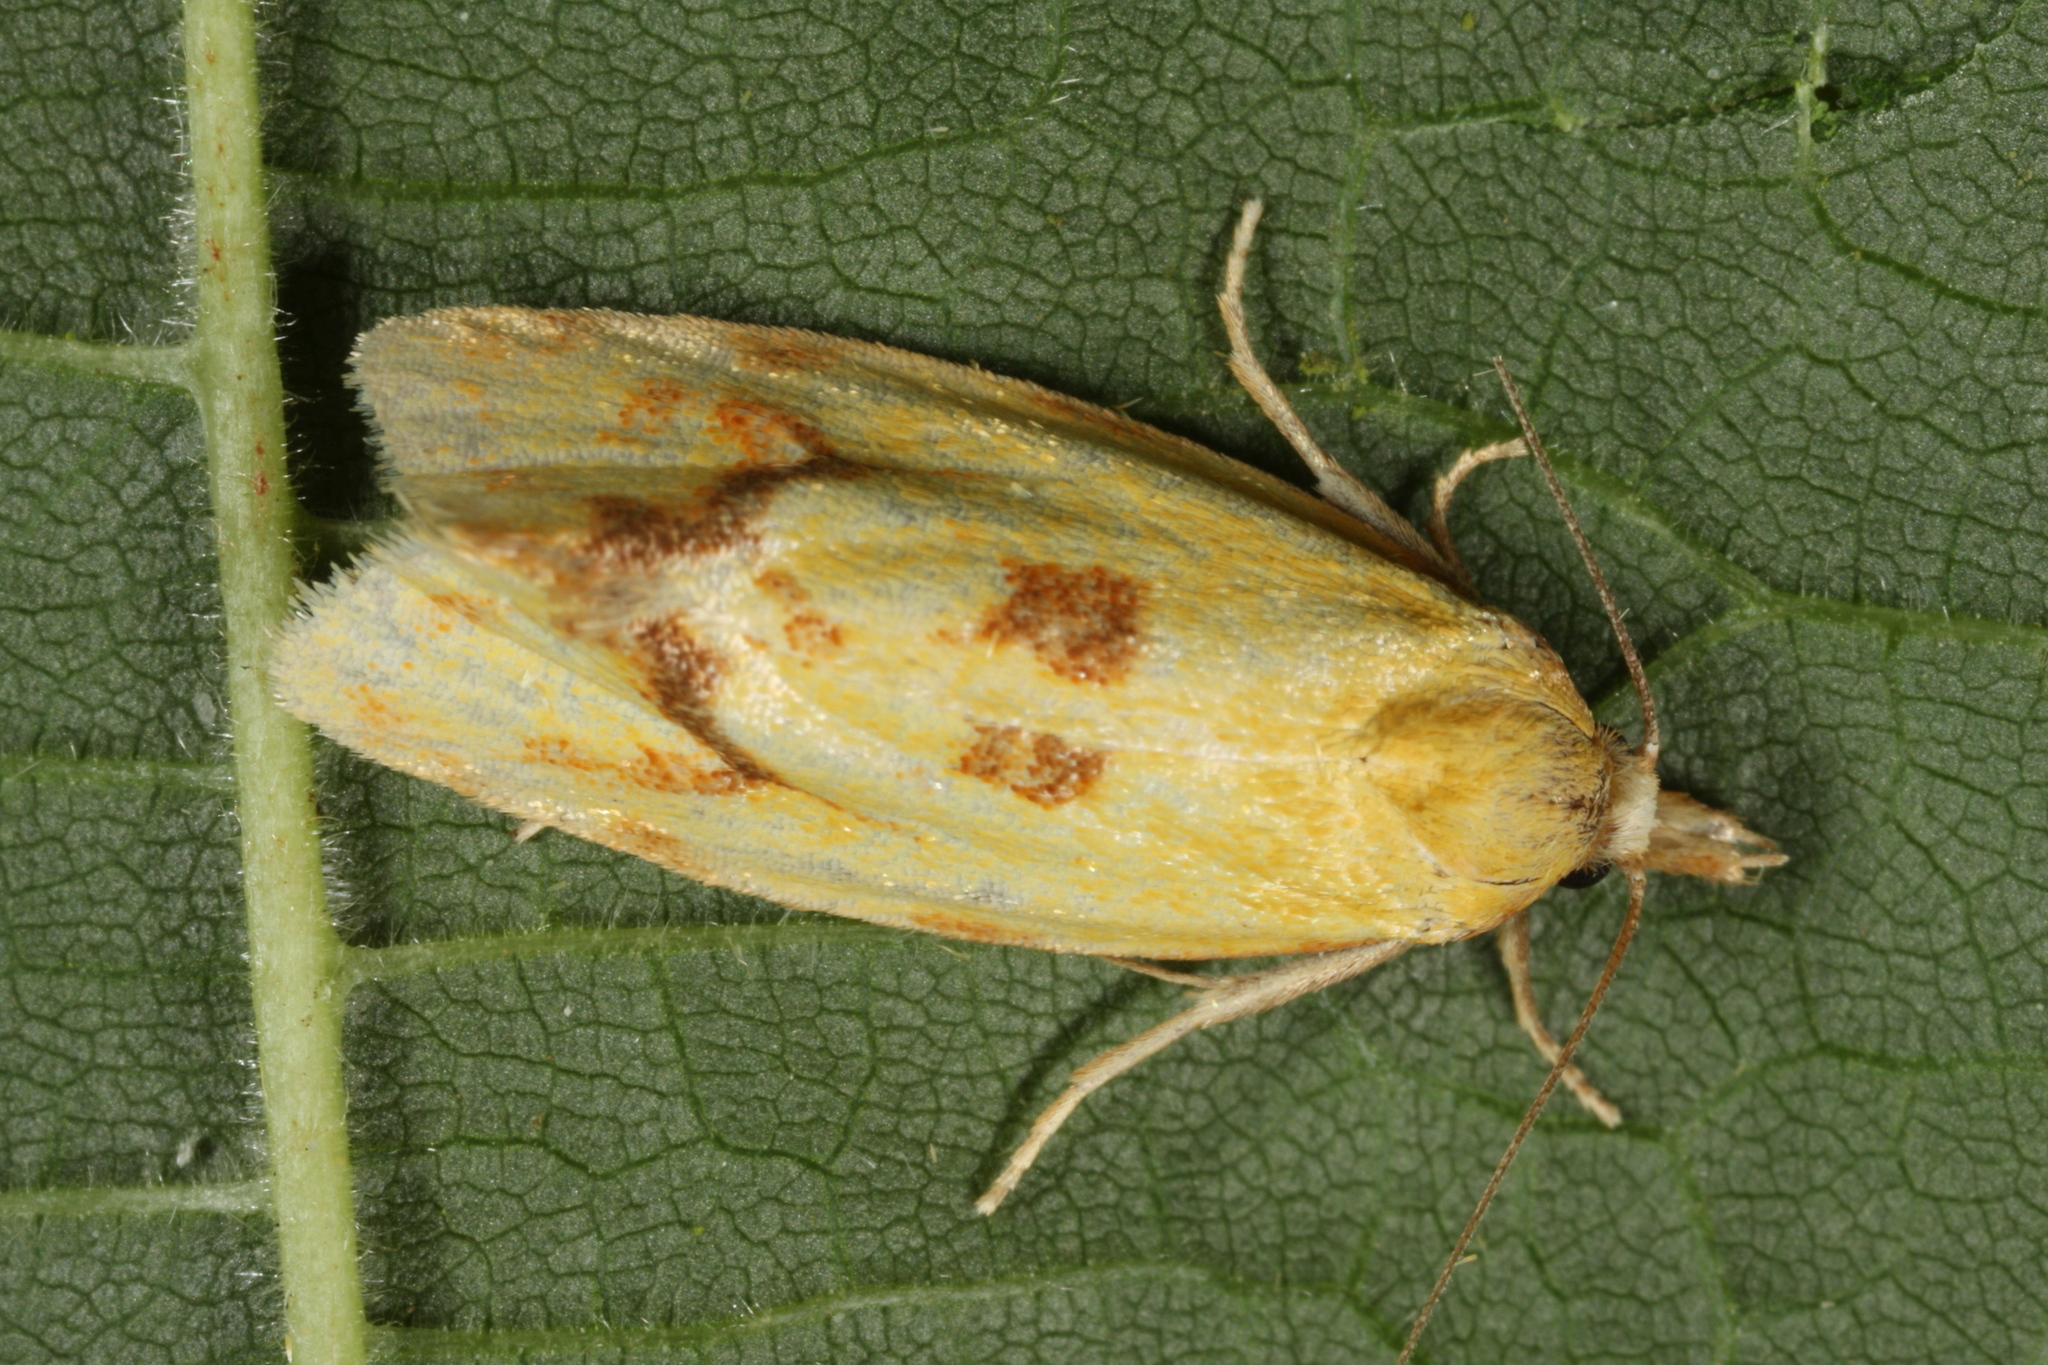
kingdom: Animalia
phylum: Arthropoda
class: Insecta
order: Lepidoptera
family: Tortricidae
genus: Agapeta
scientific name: Agapeta hamana
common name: Common yellow conch
